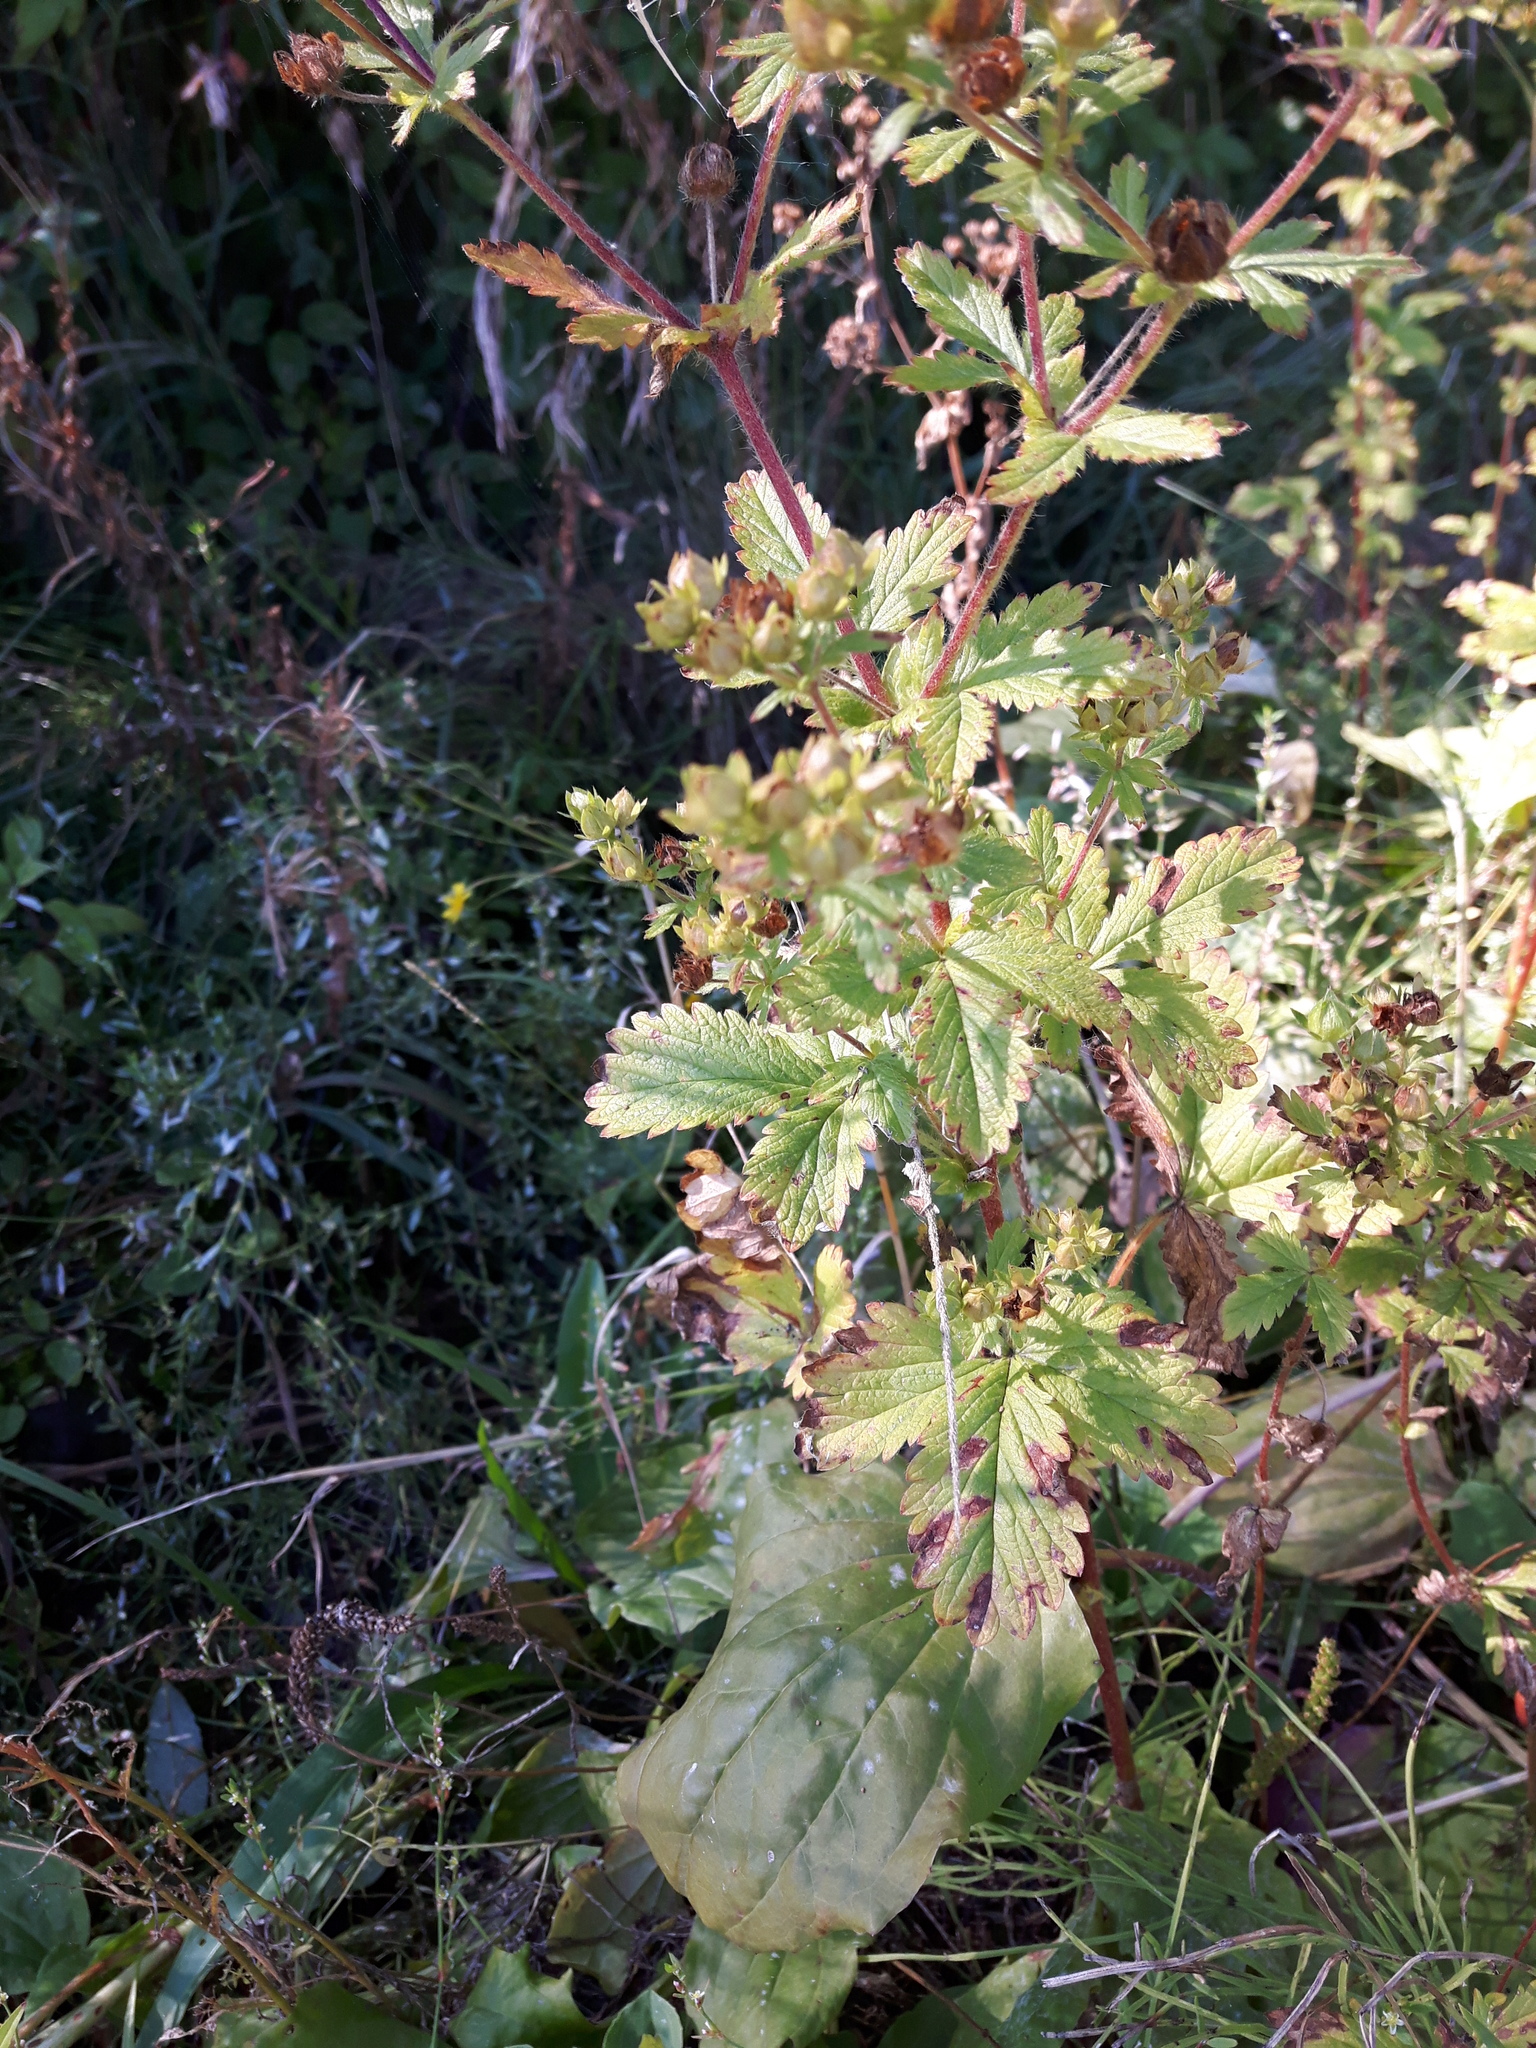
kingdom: Plantae
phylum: Tracheophyta
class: Magnoliopsida
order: Rosales
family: Rosaceae
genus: Potentilla
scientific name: Potentilla norvegica
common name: Ternate-leaved cinquefoil
